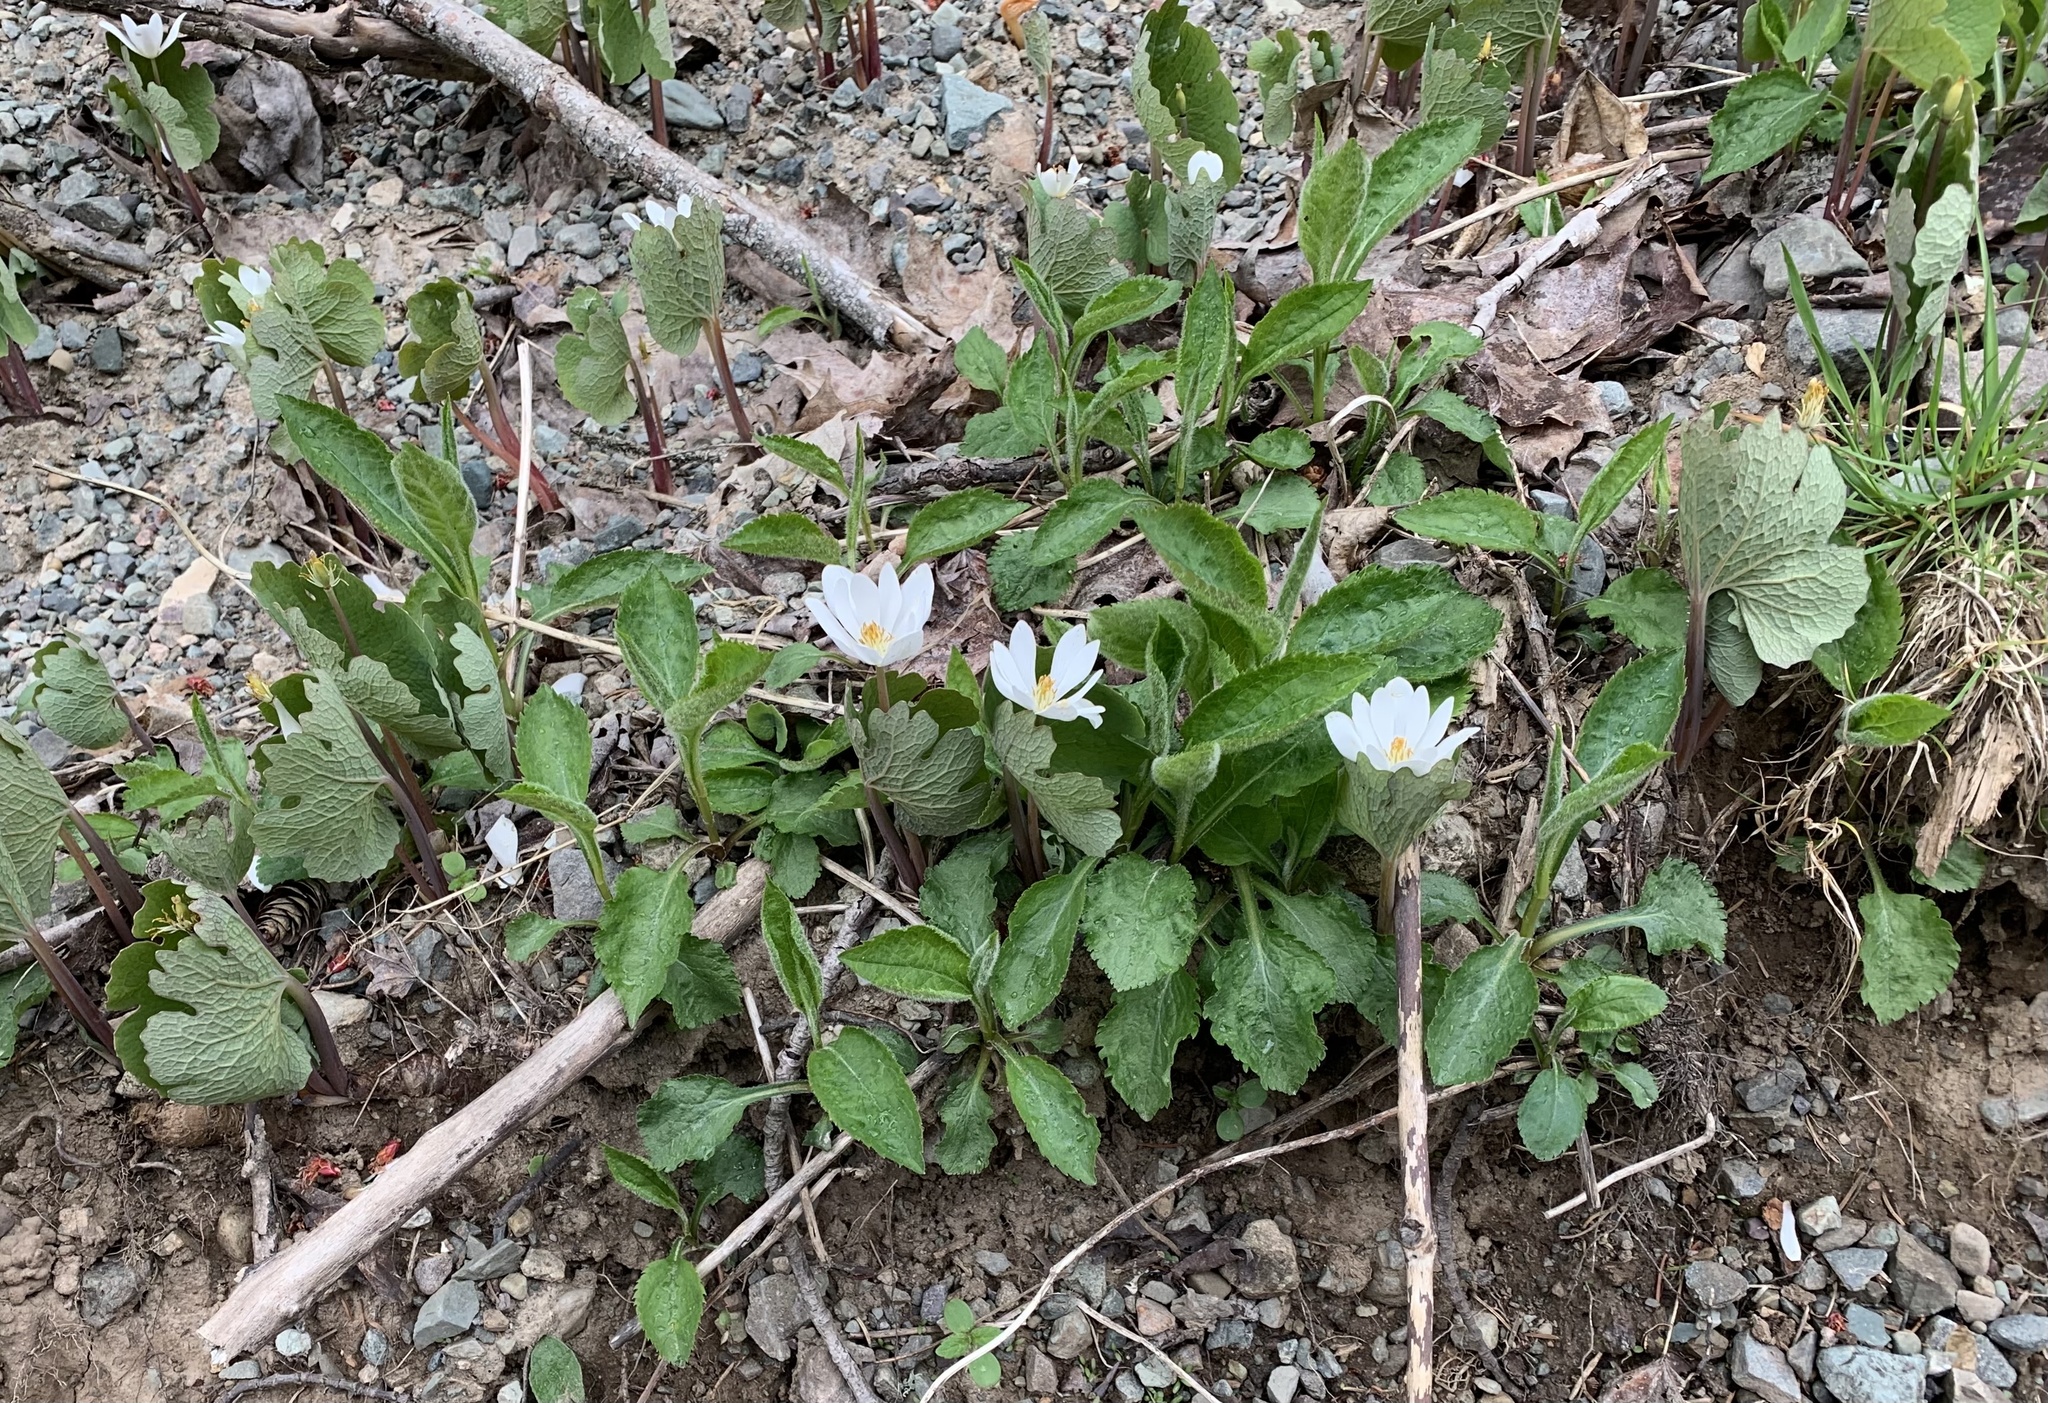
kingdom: Plantae
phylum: Tracheophyta
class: Magnoliopsida
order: Ranunculales
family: Papaveraceae
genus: Sanguinaria
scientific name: Sanguinaria canadensis
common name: Bloodroot
